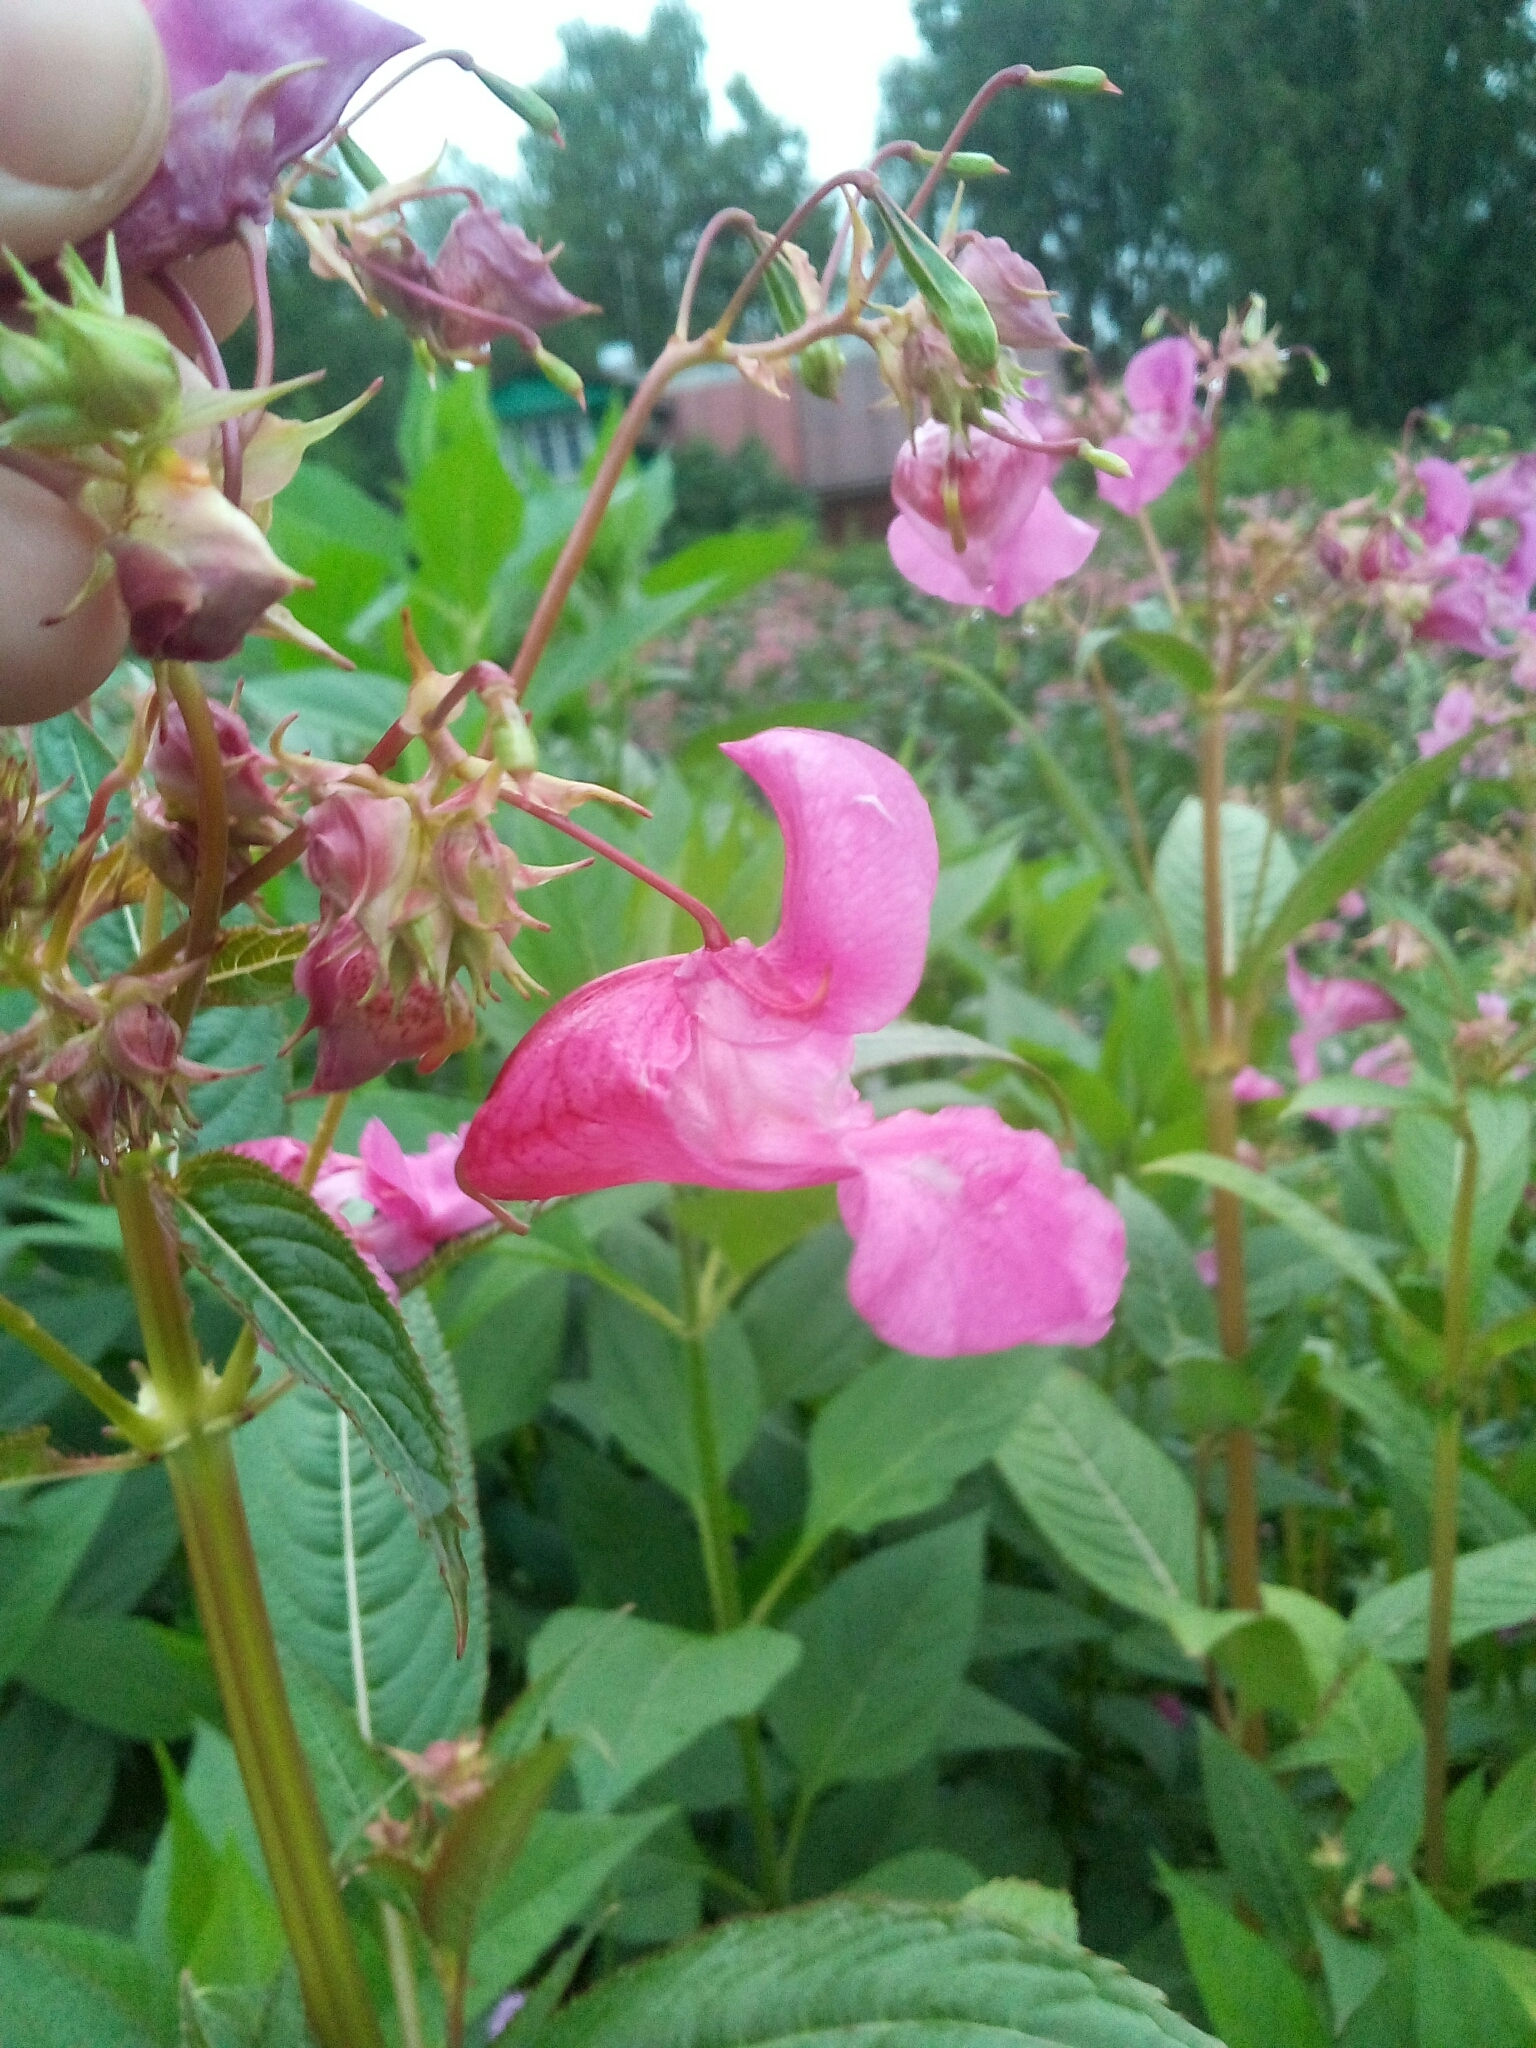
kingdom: Plantae
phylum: Tracheophyta
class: Magnoliopsida
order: Ericales
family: Balsaminaceae
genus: Impatiens
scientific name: Impatiens glandulifera
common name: Himalayan balsam
